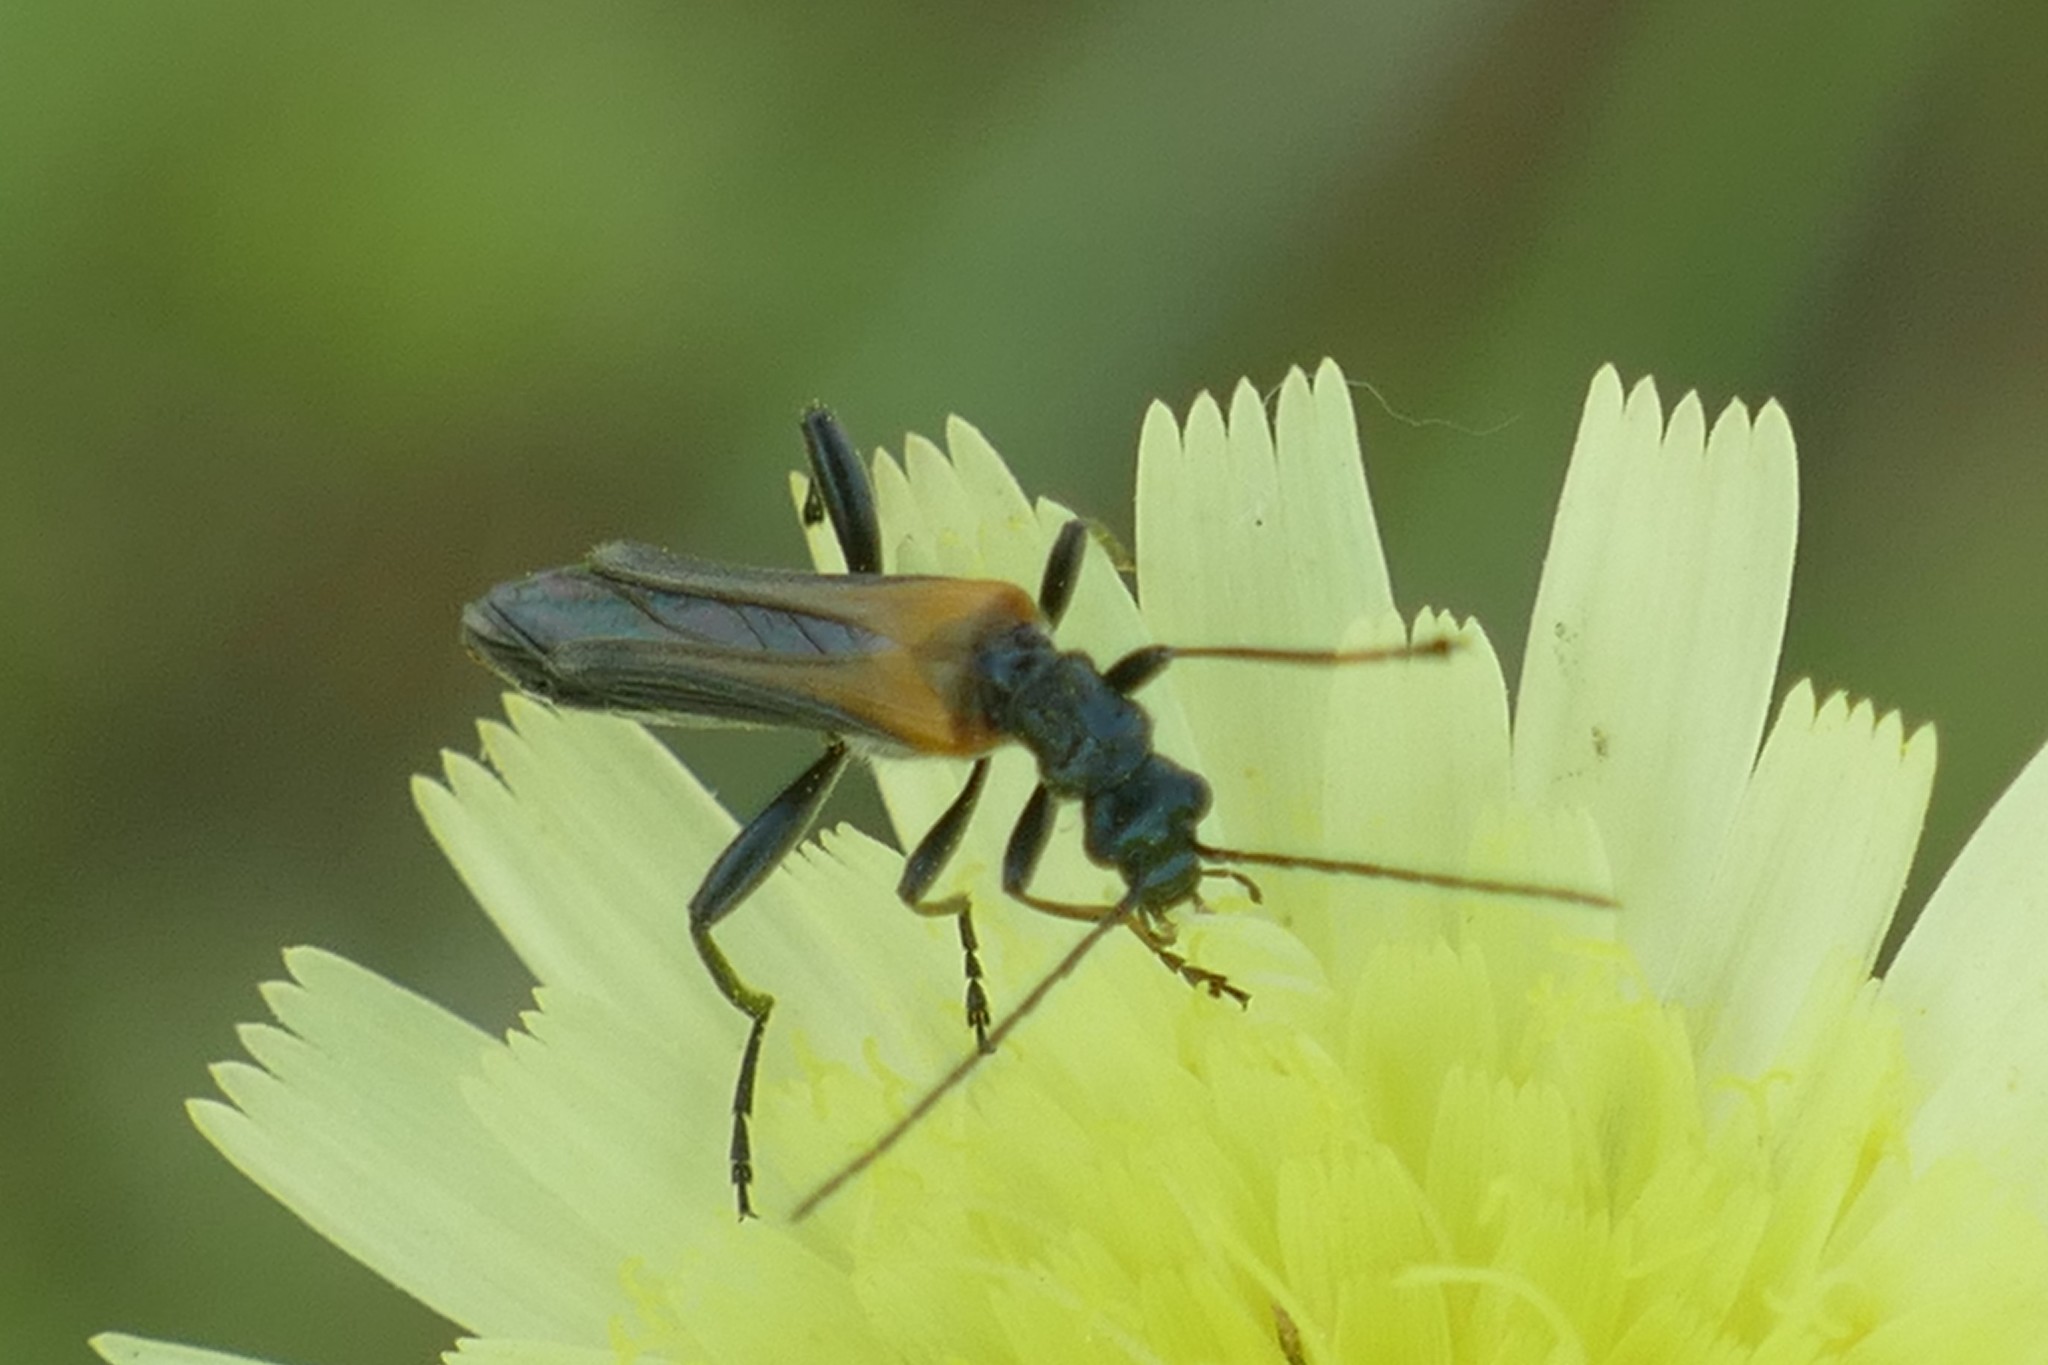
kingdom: Animalia
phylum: Arthropoda
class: Insecta
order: Coleoptera
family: Oedemeridae
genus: Oedemera
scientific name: Oedemera simplex
